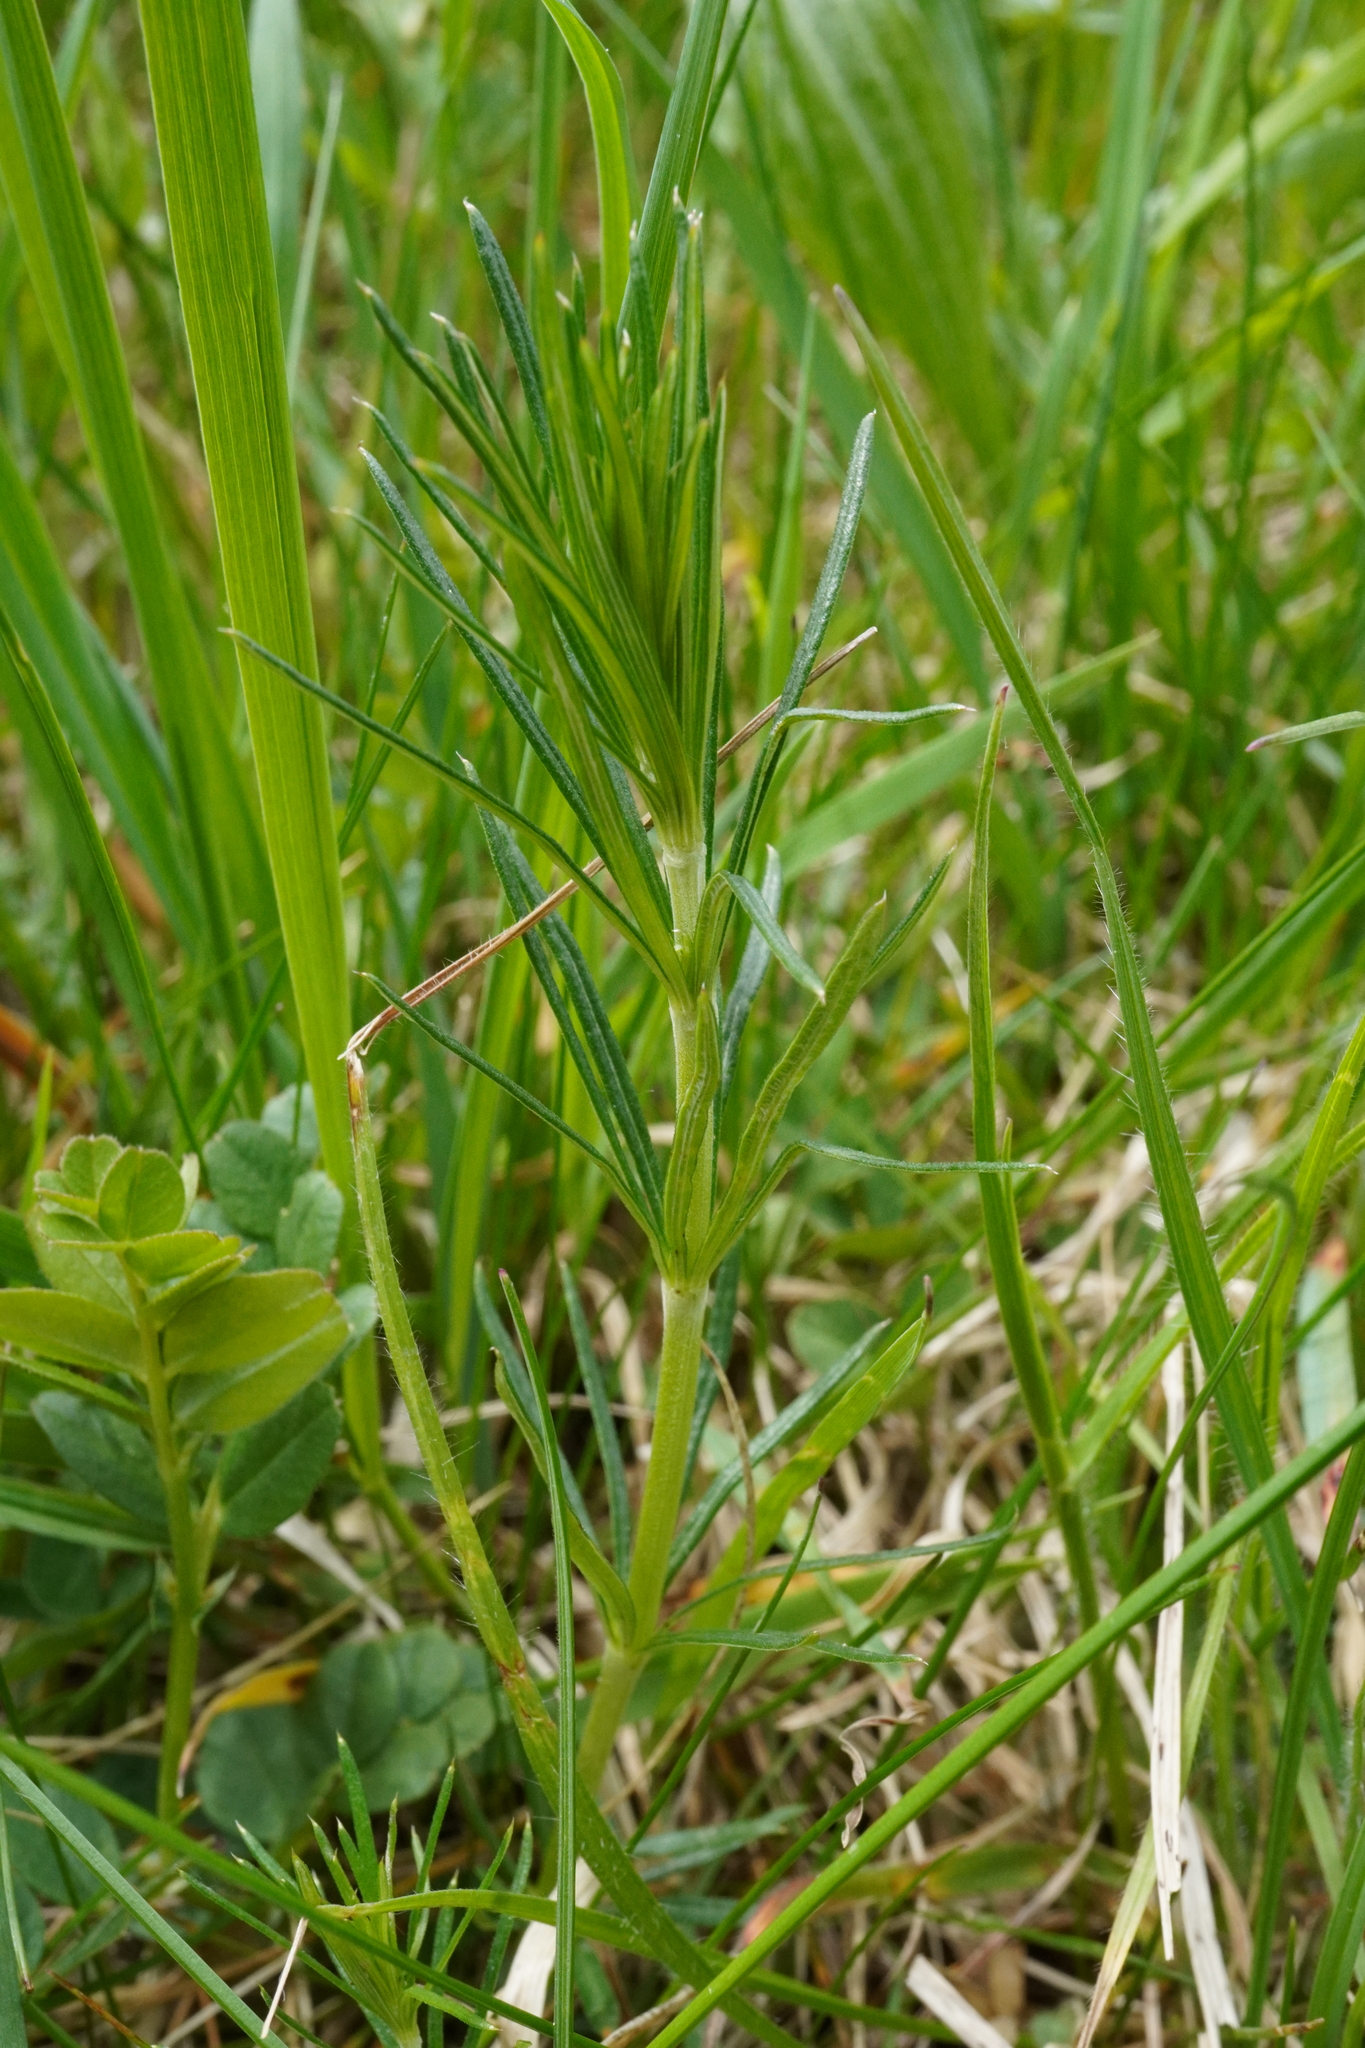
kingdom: Plantae
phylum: Tracheophyta
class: Magnoliopsida
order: Gentianales
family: Rubiaceae
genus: Galium
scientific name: Galium verum
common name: Lady's bedstraw
